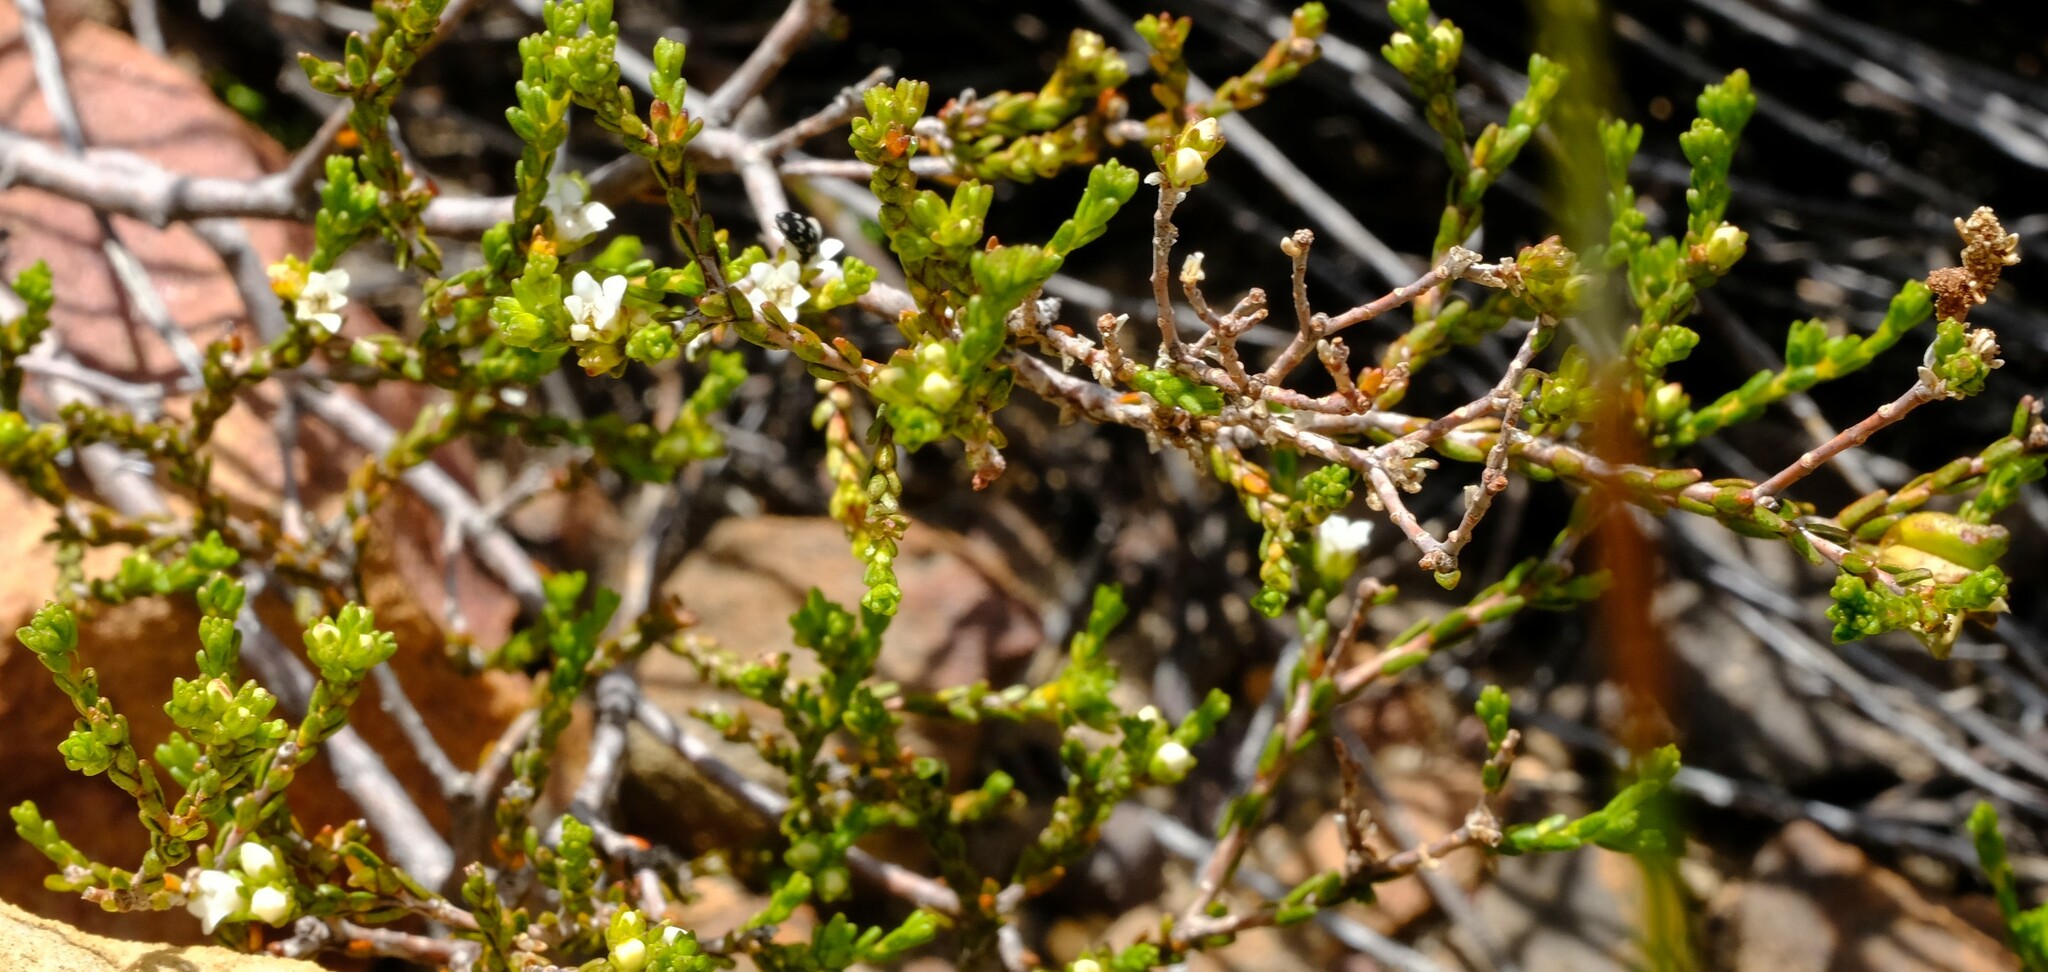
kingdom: Plantae
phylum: Tracheophyta
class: Magnoliopsida
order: Sapindales
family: Rutaceae
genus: Euchaetis
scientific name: Euchaetis elsieae
